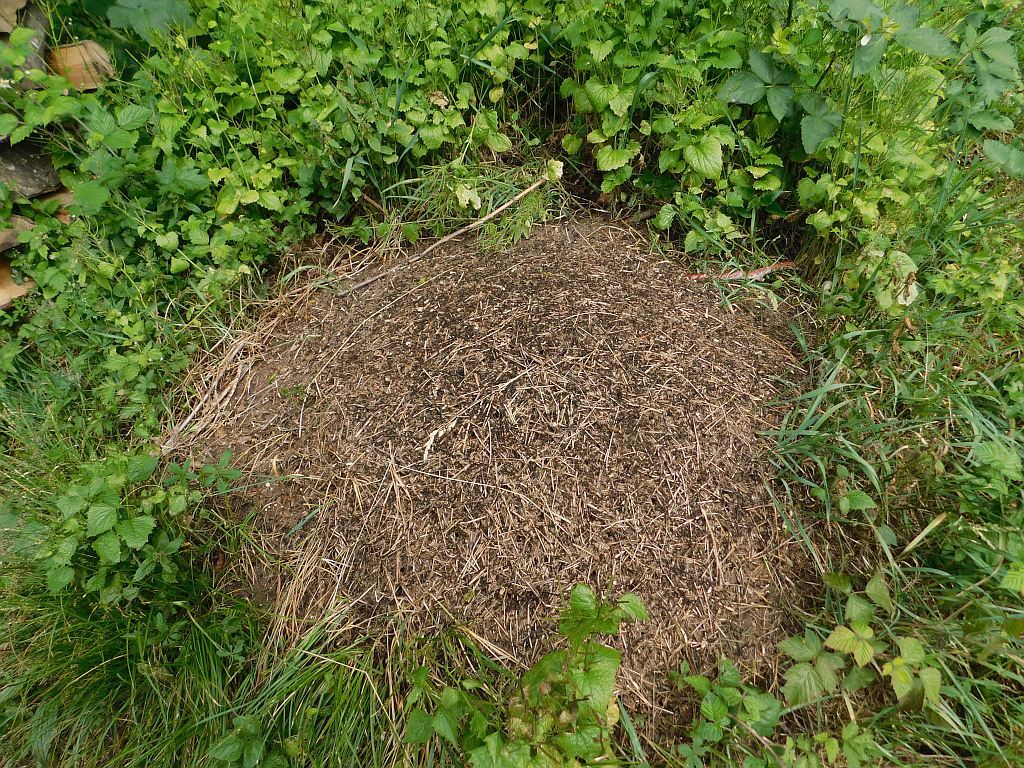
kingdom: Animalia
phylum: Arthropoda
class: Insecta
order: Hymenoptera
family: Formicidae
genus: Formica
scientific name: Formica pratensis
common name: European red wood ant
